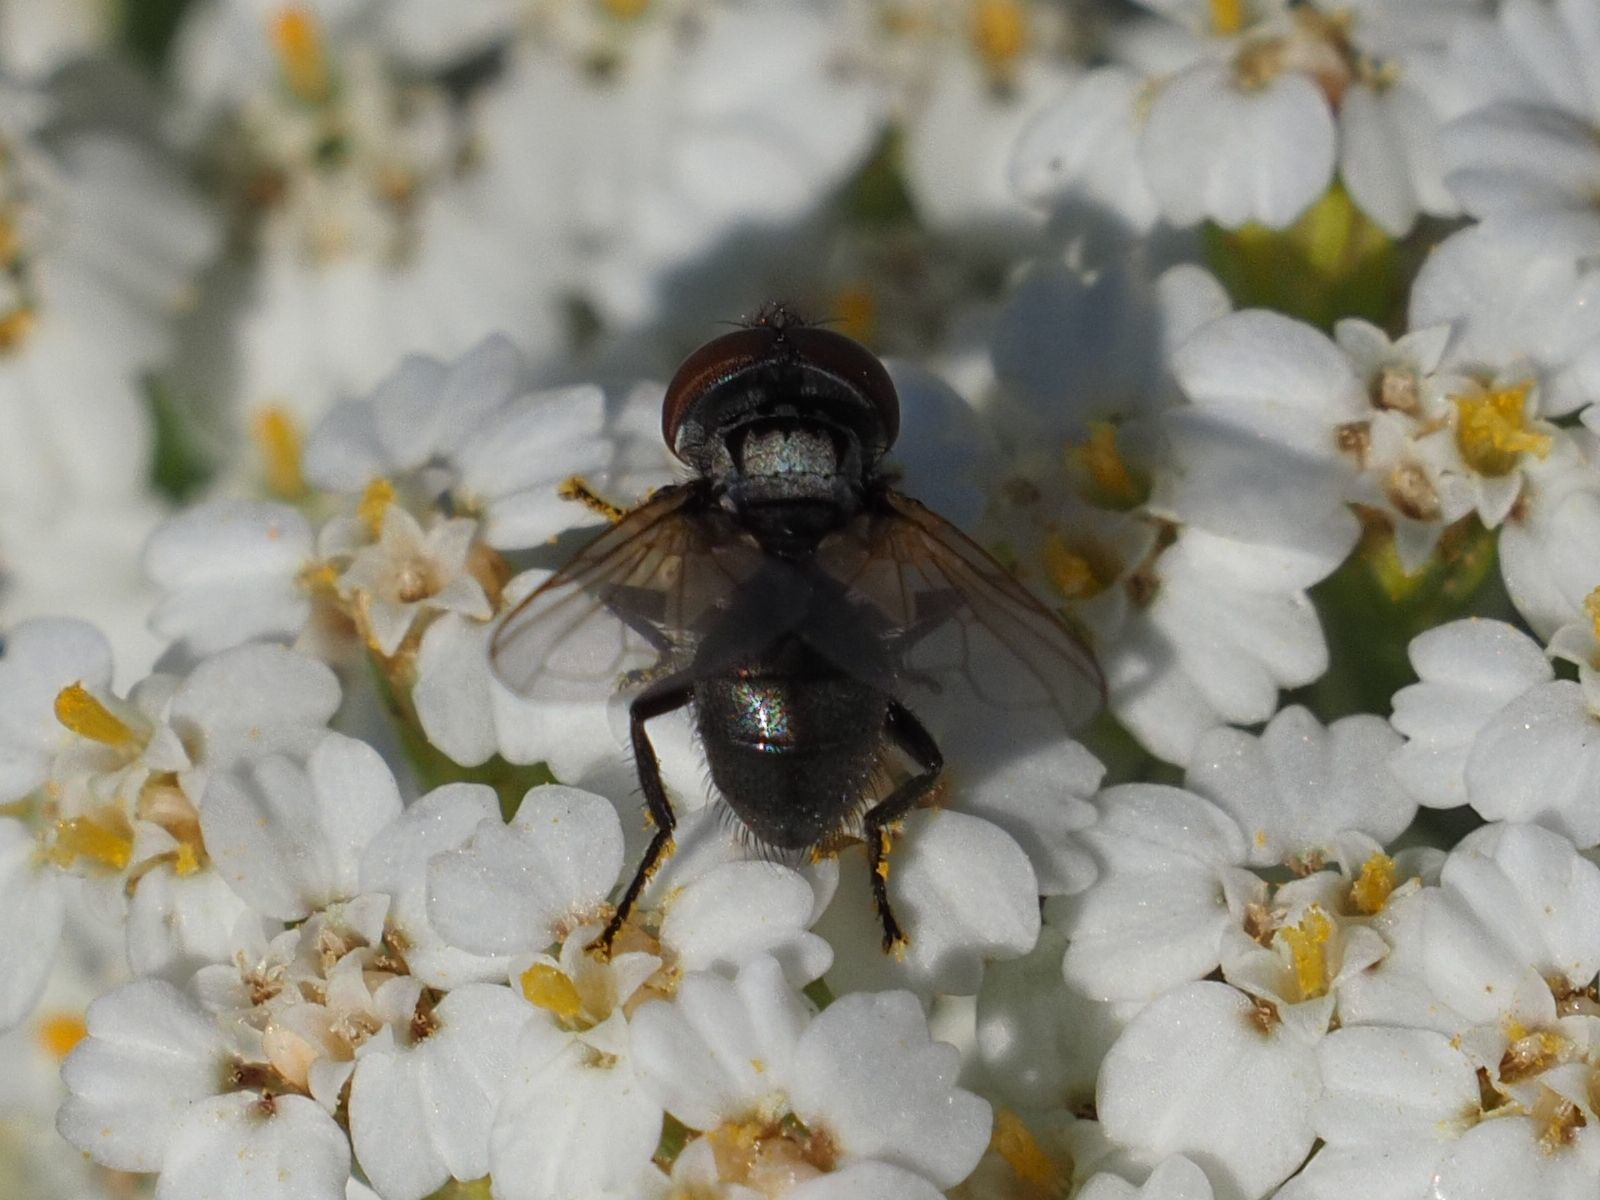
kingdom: Animalia
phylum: Arthropoda
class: Insecta
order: Diptera
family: Tachinidae
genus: Phasia
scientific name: Phasia obesa
